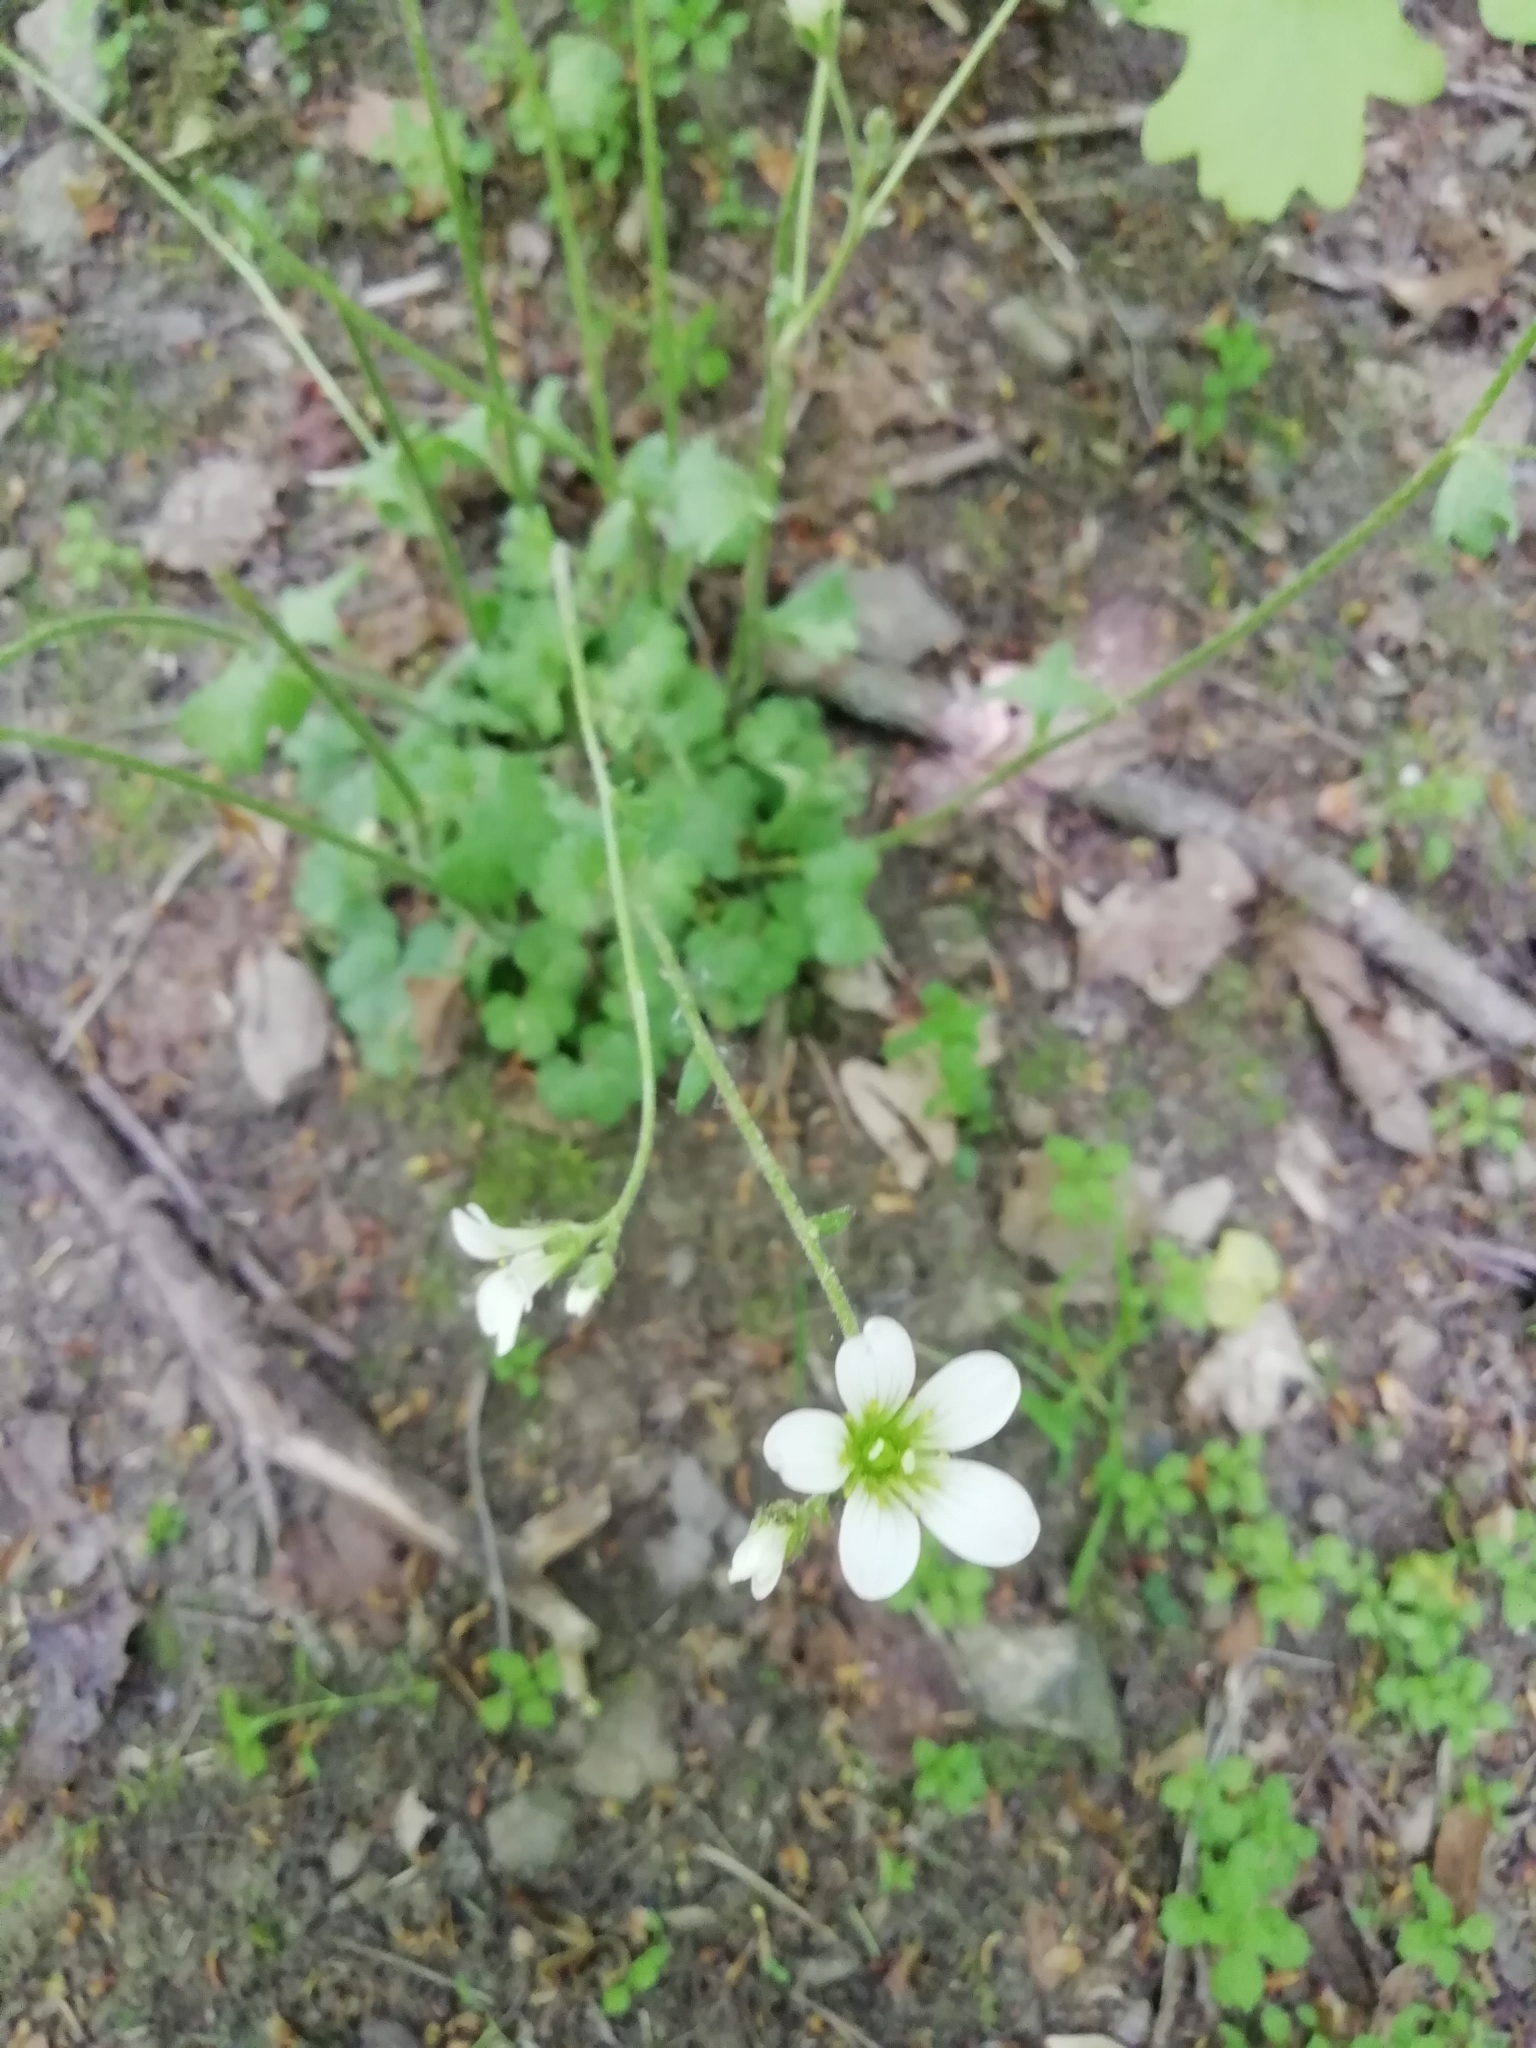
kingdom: Plantae
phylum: Tracheophyta
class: Magnoliopsida
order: Saxifragales
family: Saxifragaceae
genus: Saxifraga
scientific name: Saxifraga granulata
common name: Meadow saxifrage
